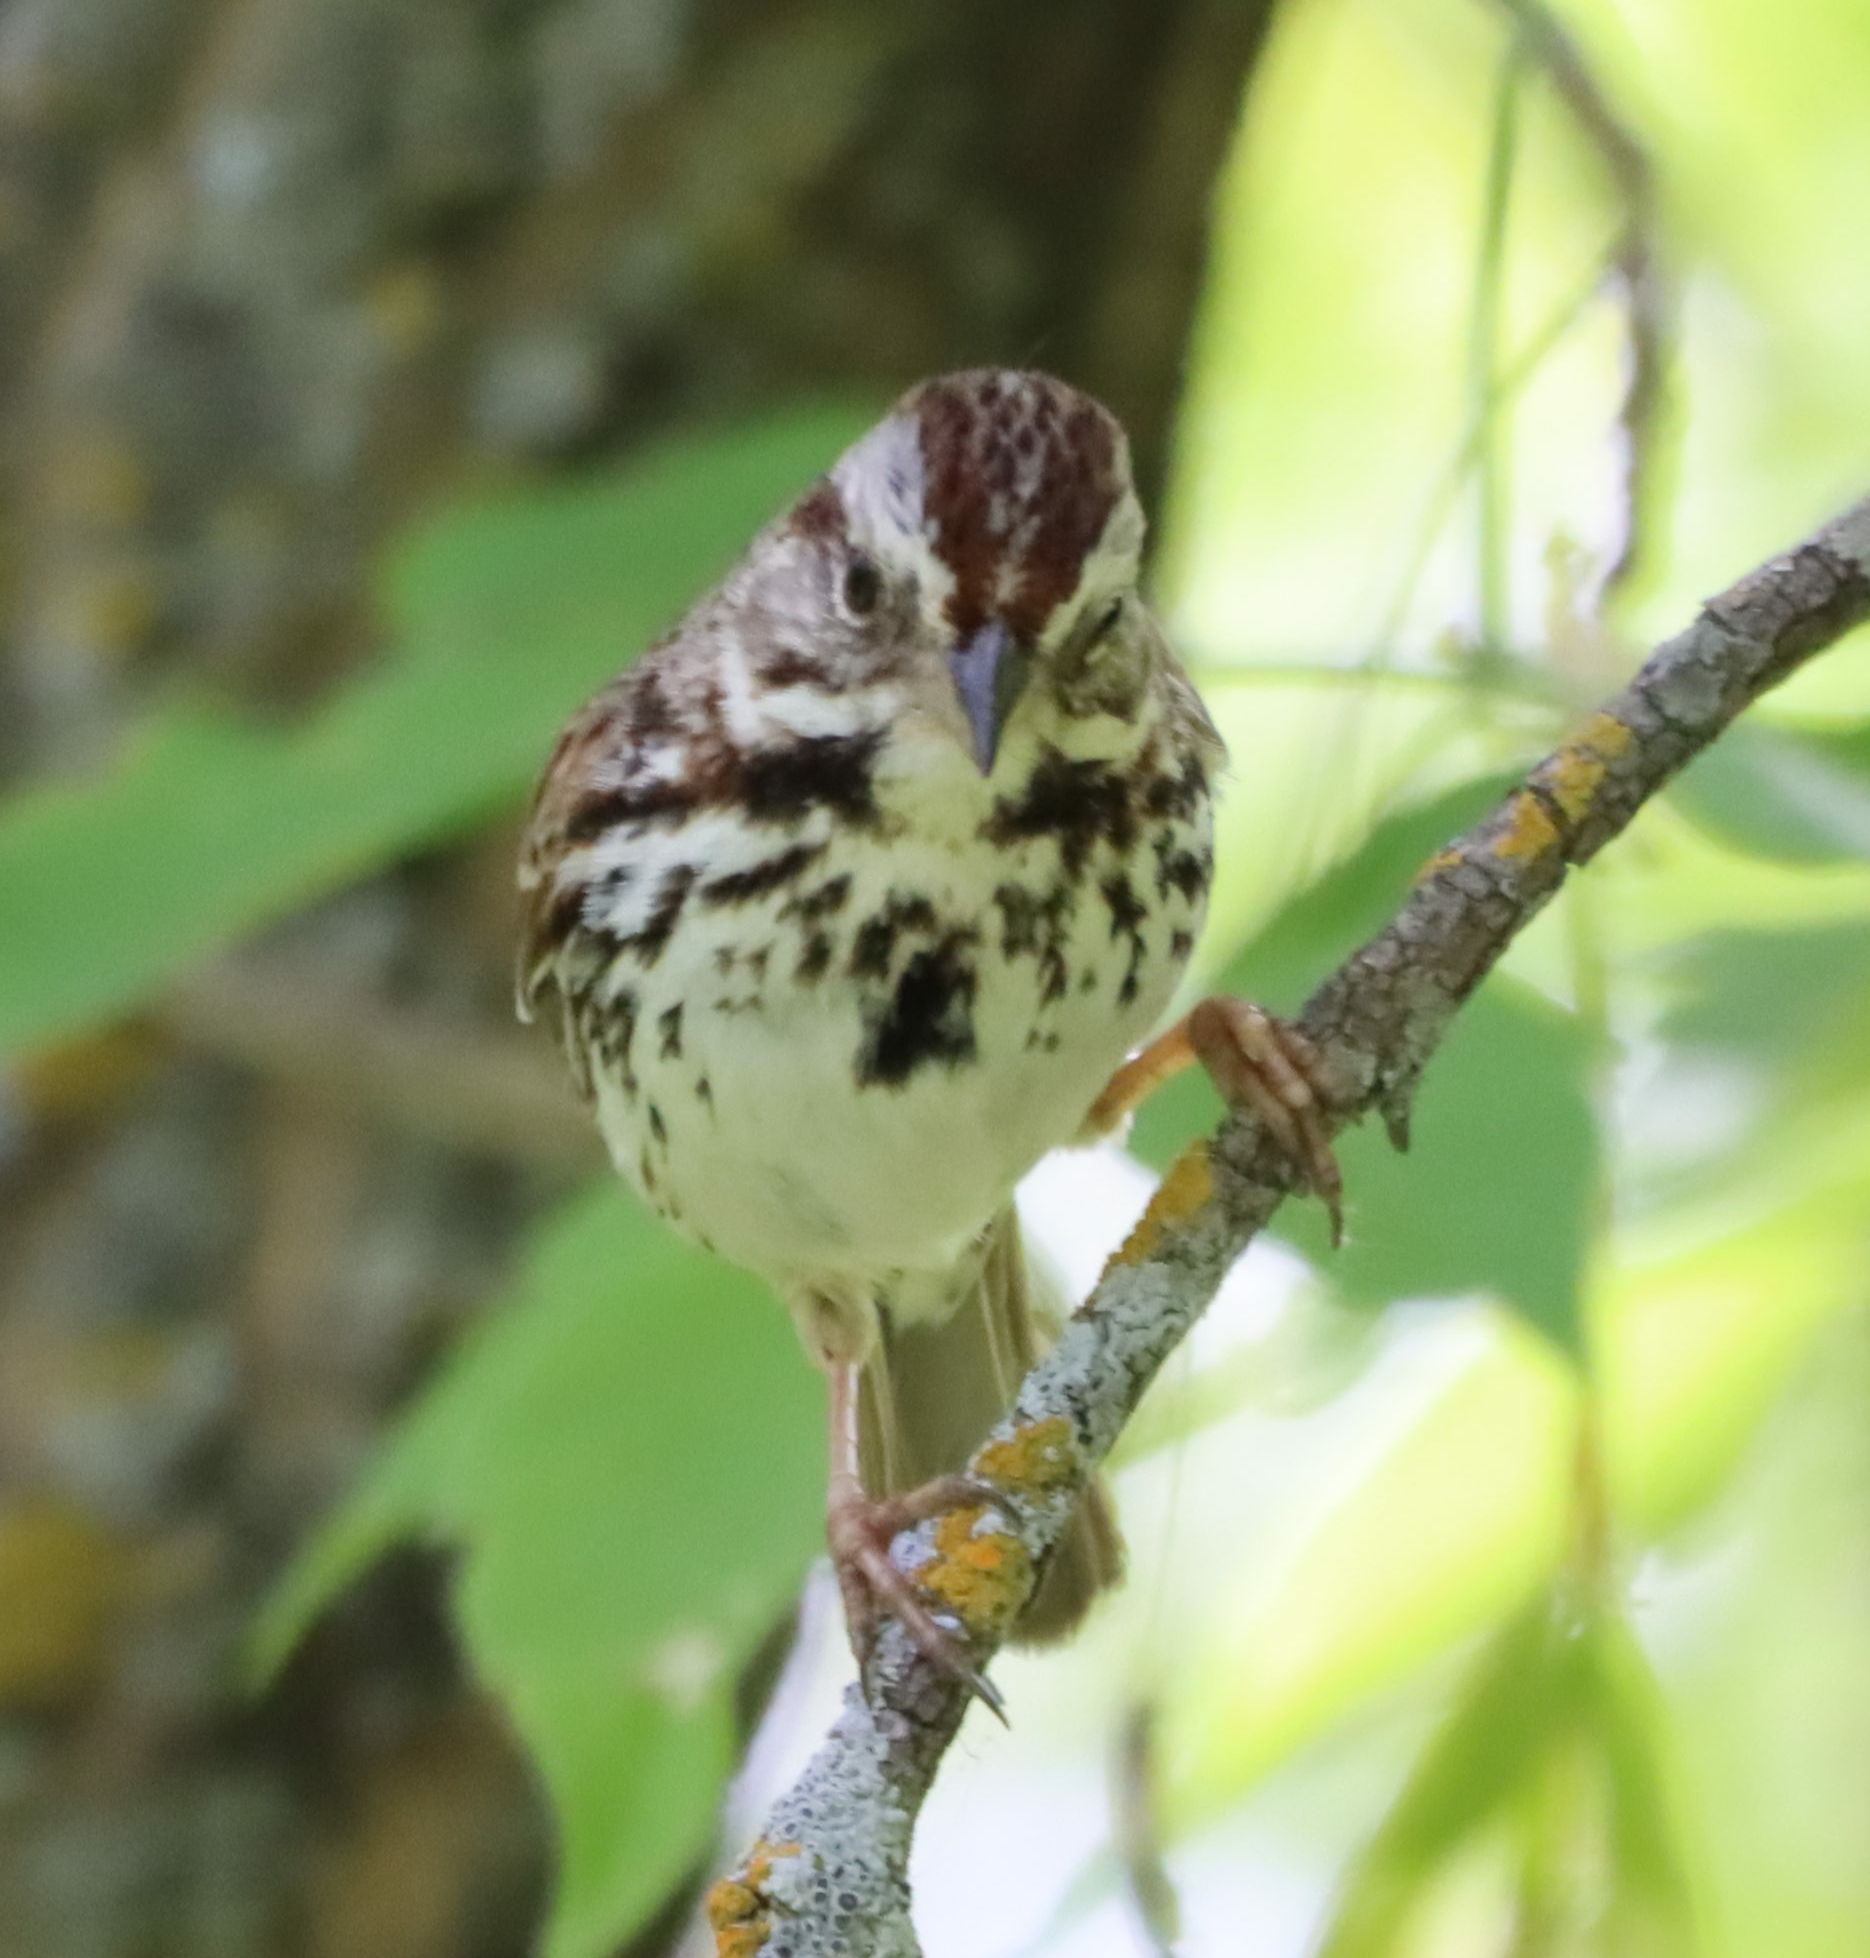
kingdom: Animalia
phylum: Chordata
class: Aves
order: Passeriformes
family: Passerellidae
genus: Melospiza
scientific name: Melospiza melodia
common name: Song sparrow
